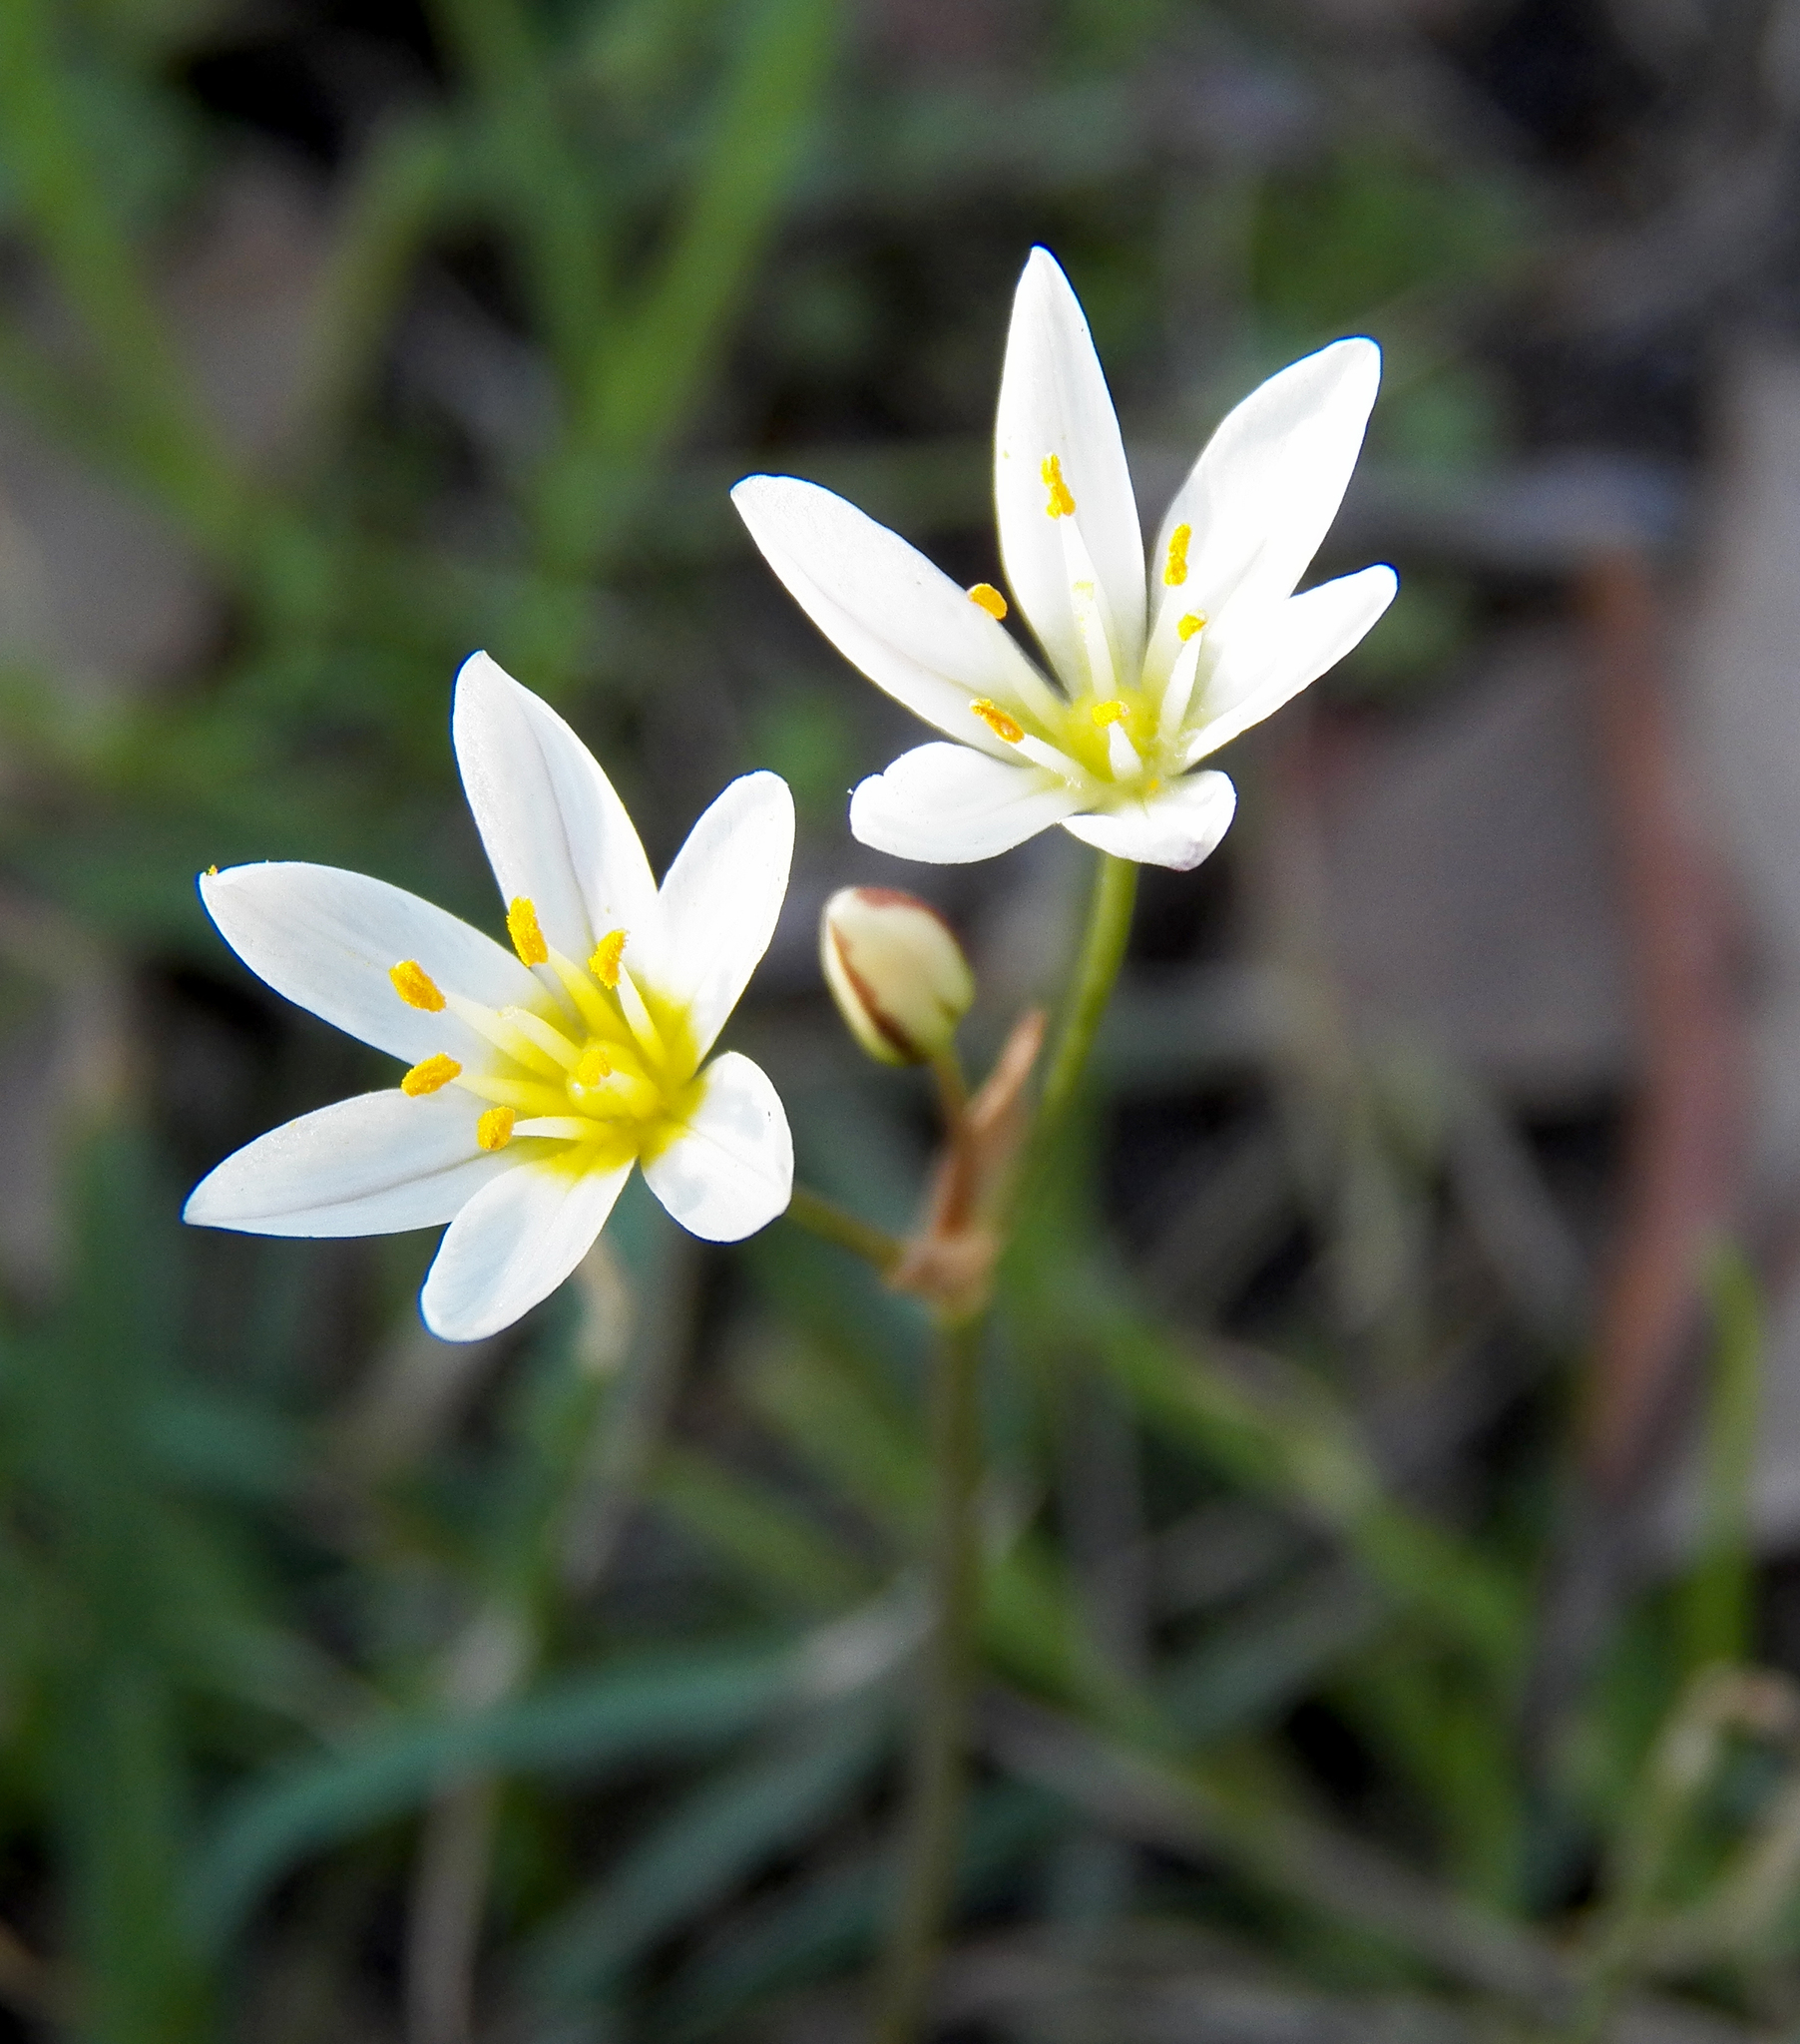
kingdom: Plantae
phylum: Tracheophyta
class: Liliopsida
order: Asparagales
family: Amaryllidaceae
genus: Nothoscordum
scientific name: Nothoscordum bivalve
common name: Crow-poison
